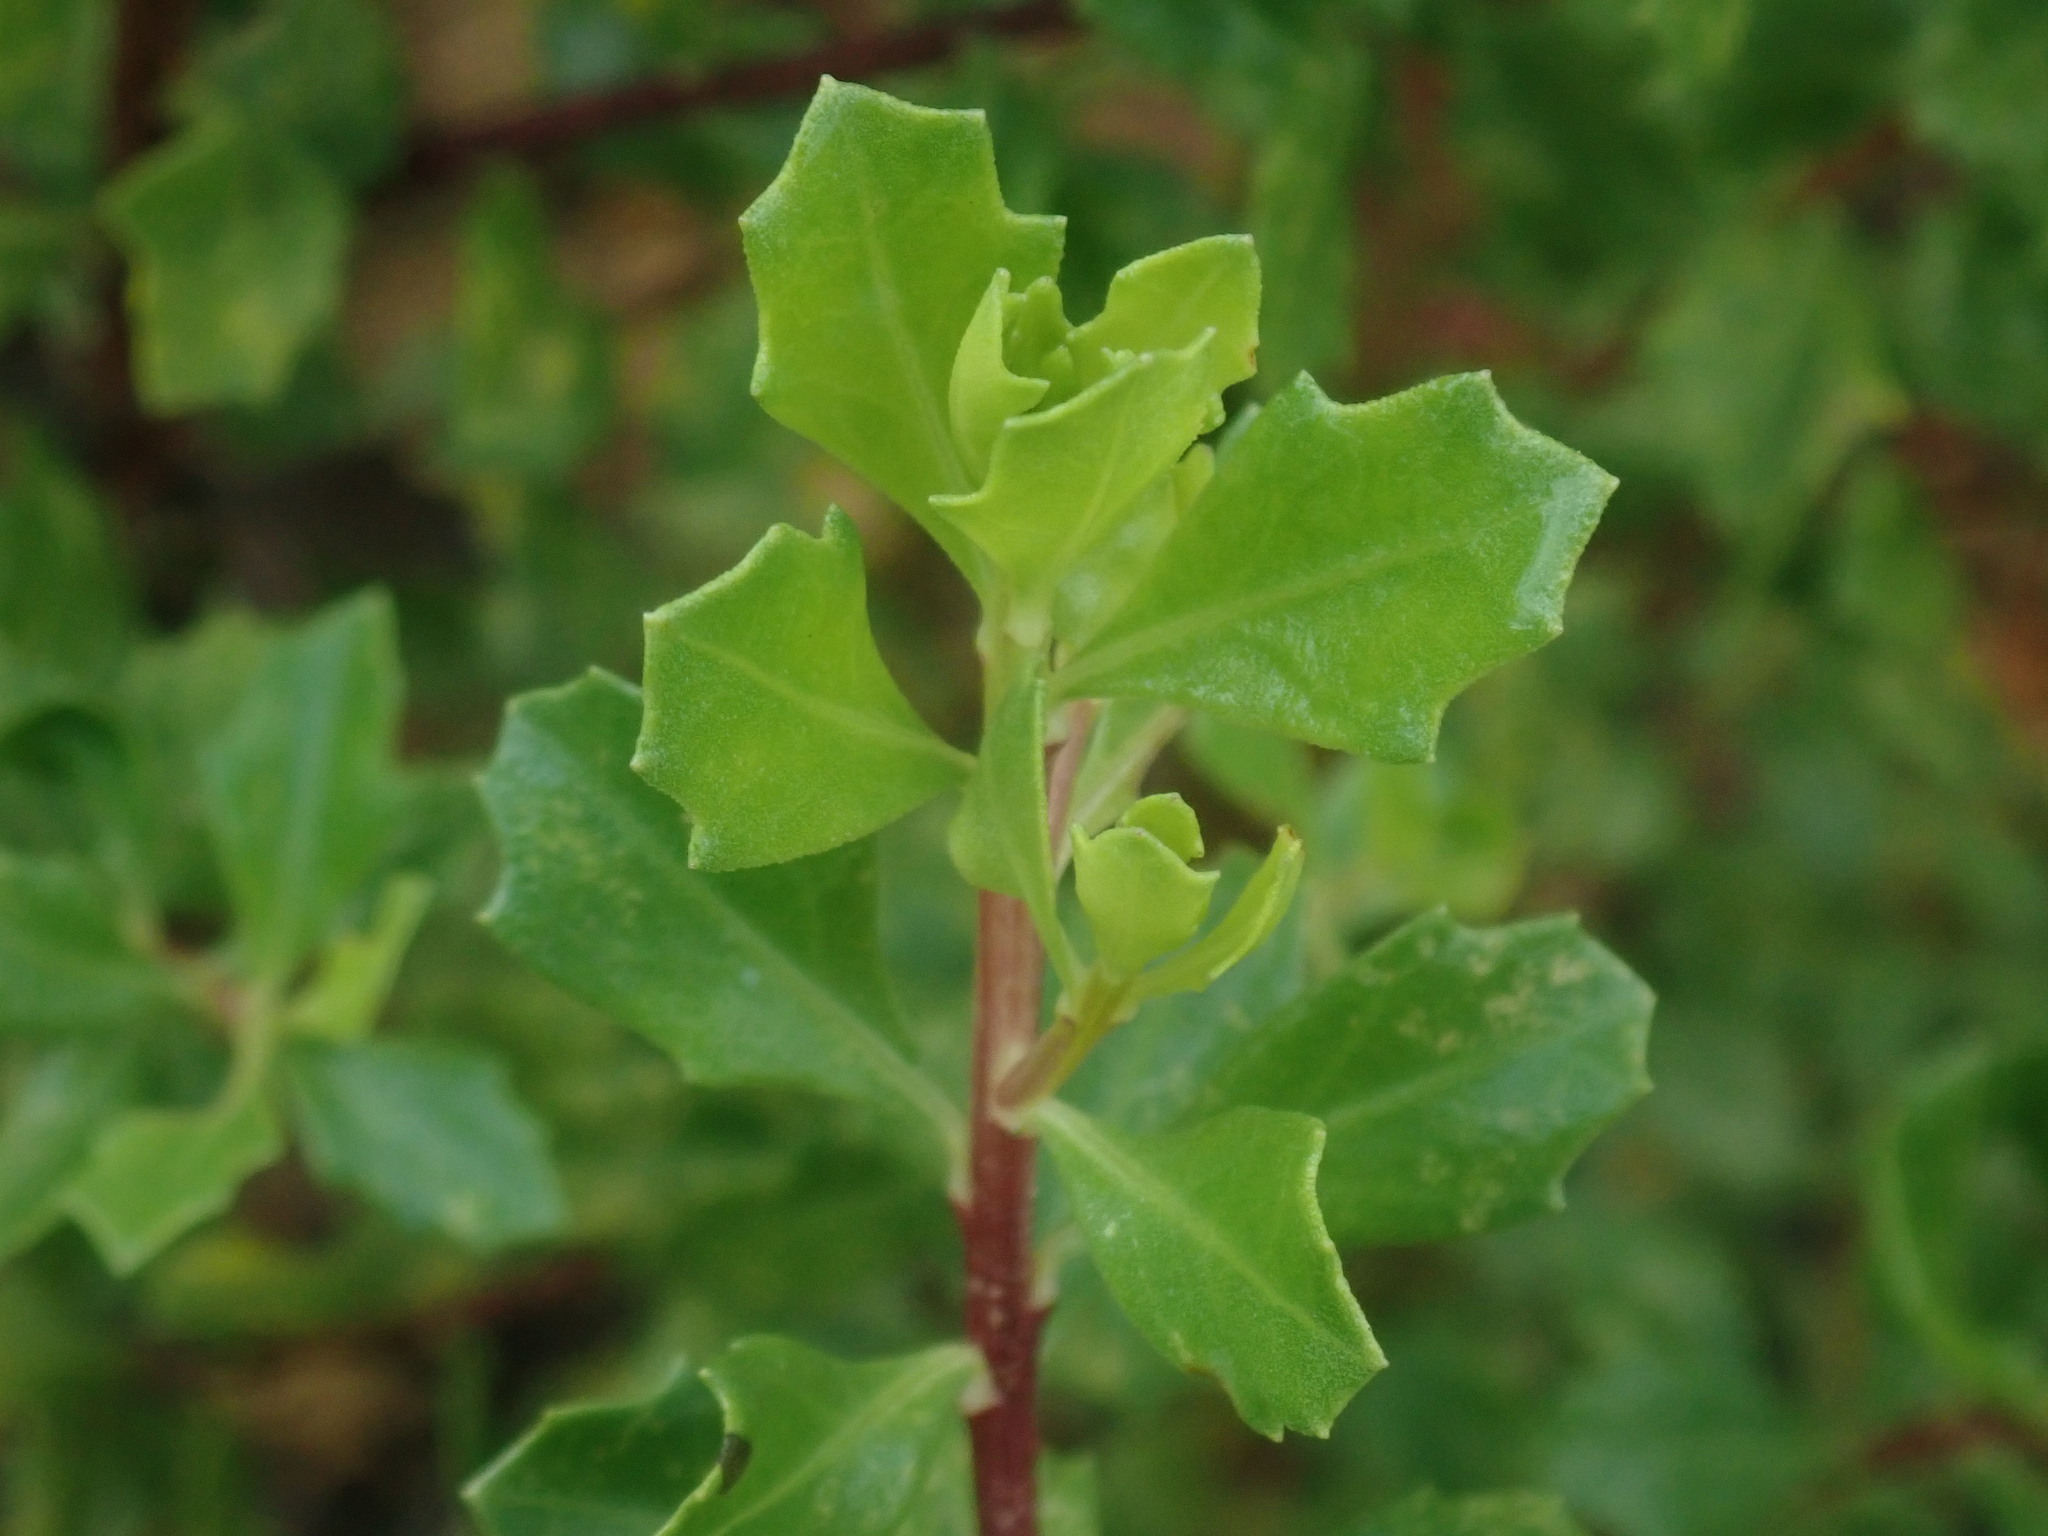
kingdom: Plantae
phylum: Tracheophyta
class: Magnoliopsida
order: Asterales
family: Asteraceae
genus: Baccharis
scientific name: Baccharis conferta
